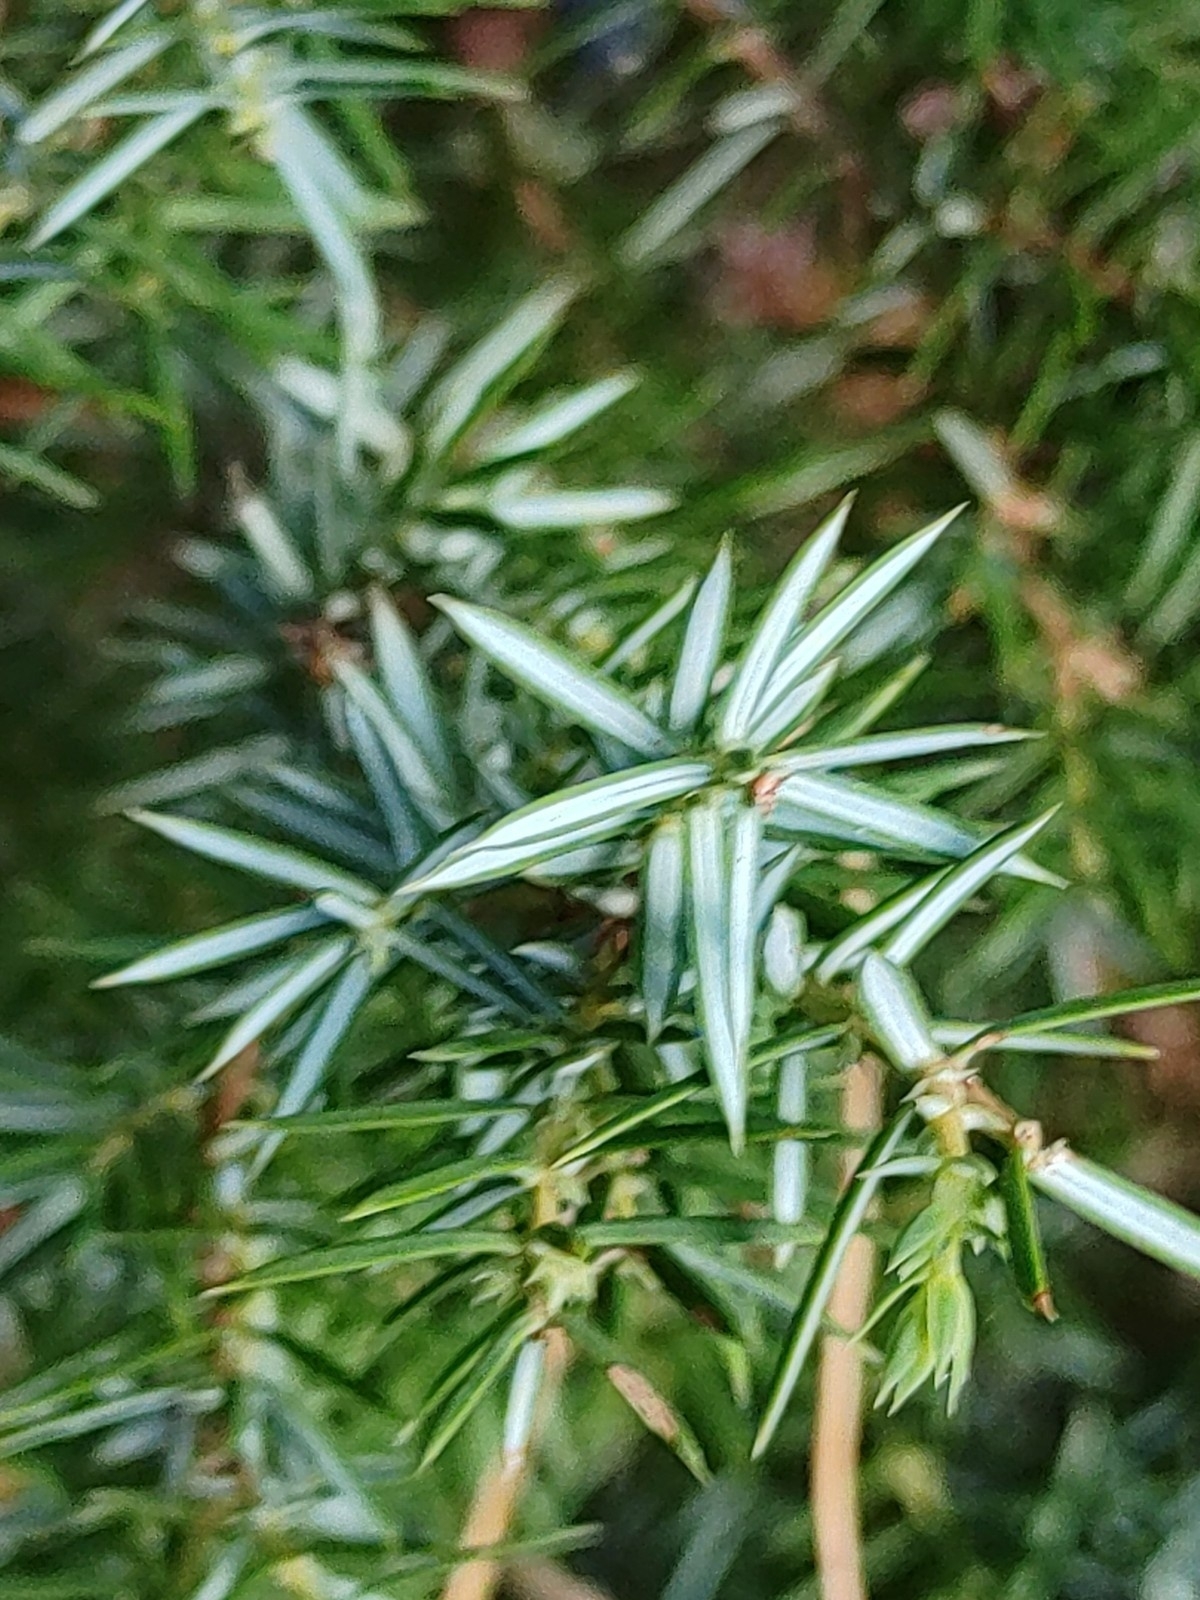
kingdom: Plantae
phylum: Tracheophyta
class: Pinopsida
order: Pinales
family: Cupressaceae
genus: Juniperus
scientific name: Juniperus communis
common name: Common juniper
